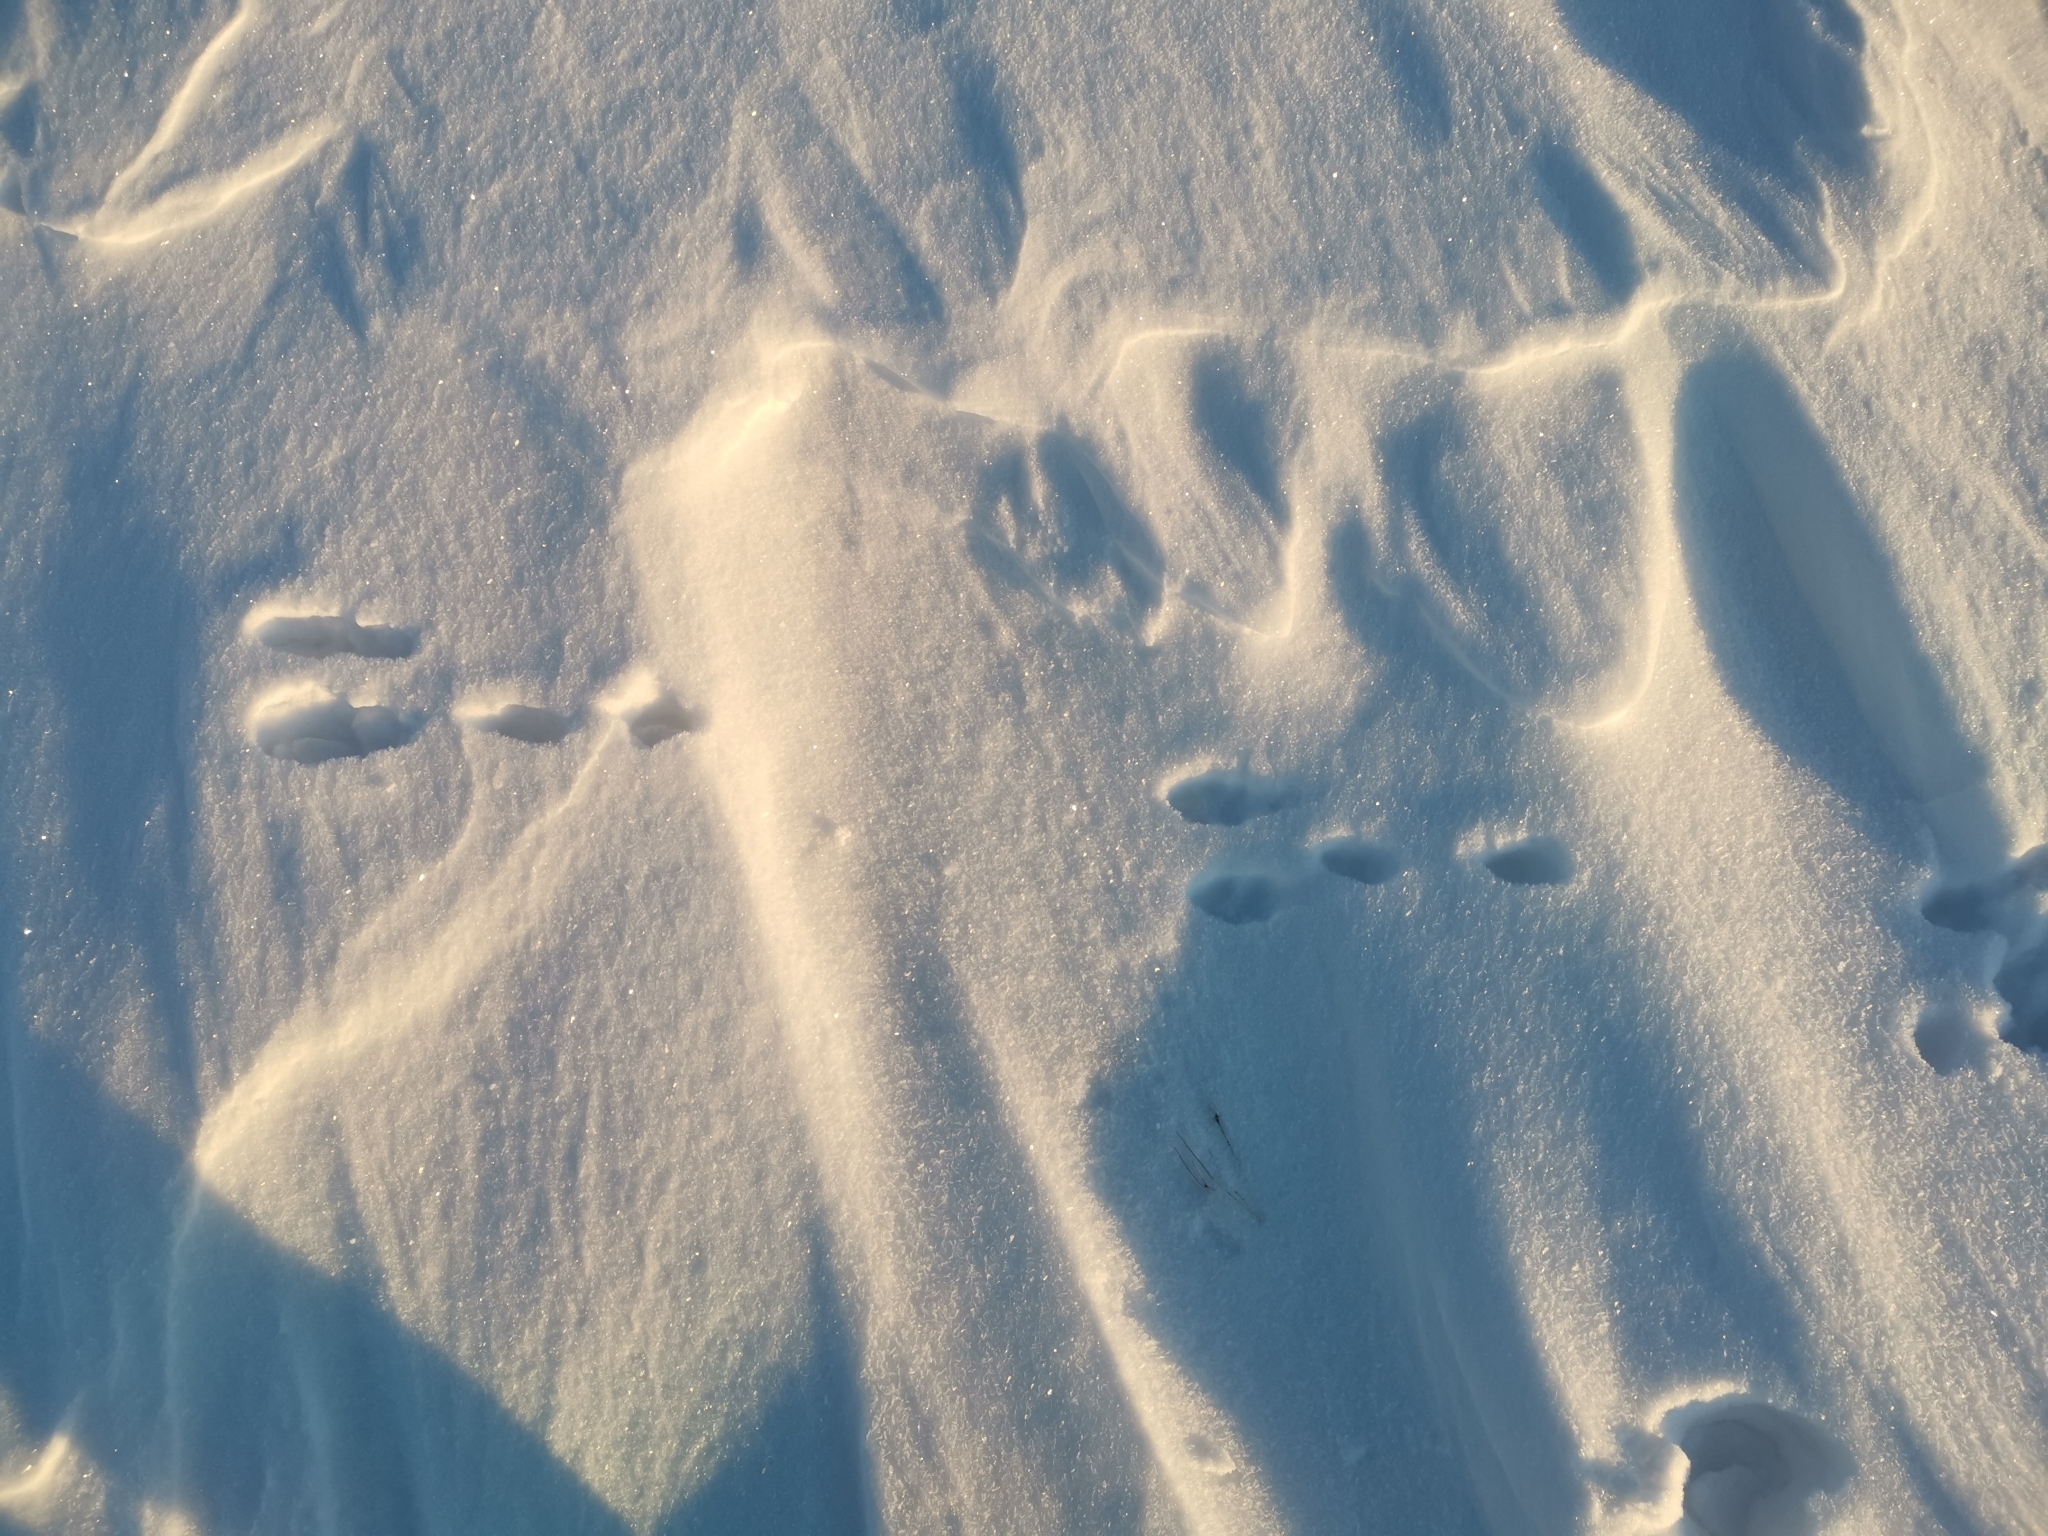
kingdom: Animalia
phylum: Chordata
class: Mammalia
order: Lagomorpha
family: Leporidae
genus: Lepus
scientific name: Lepus timidus
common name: Mountain hare
